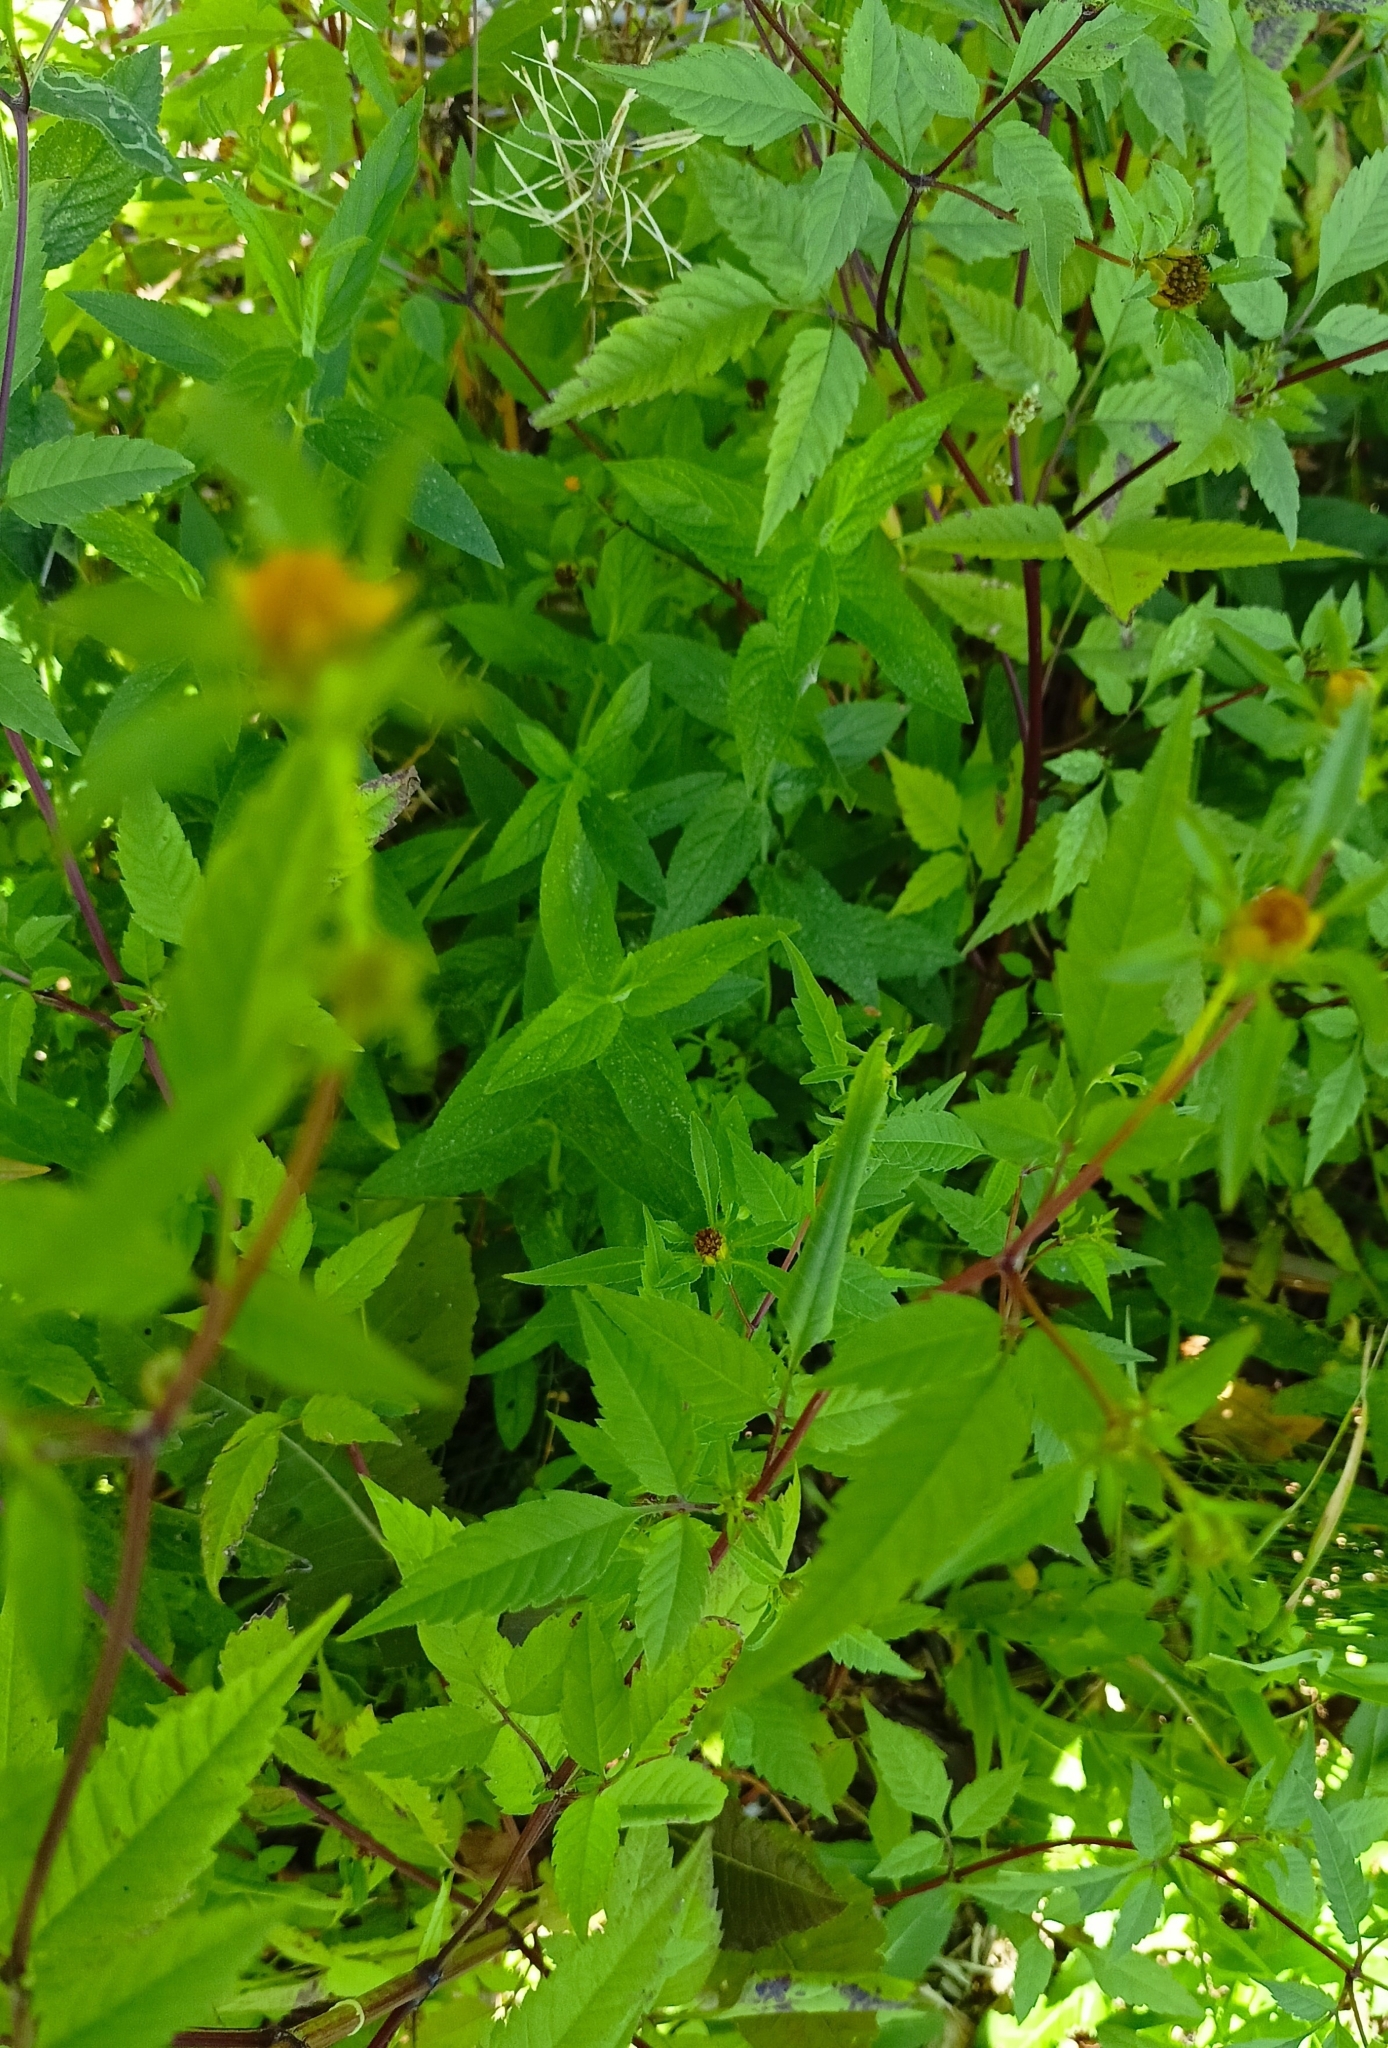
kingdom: Plantae
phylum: Tracheophyta
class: Magnoliopsida
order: Asterales
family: Asteraceae
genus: Bidens
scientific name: Bidens frondosa
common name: Beggarticks
